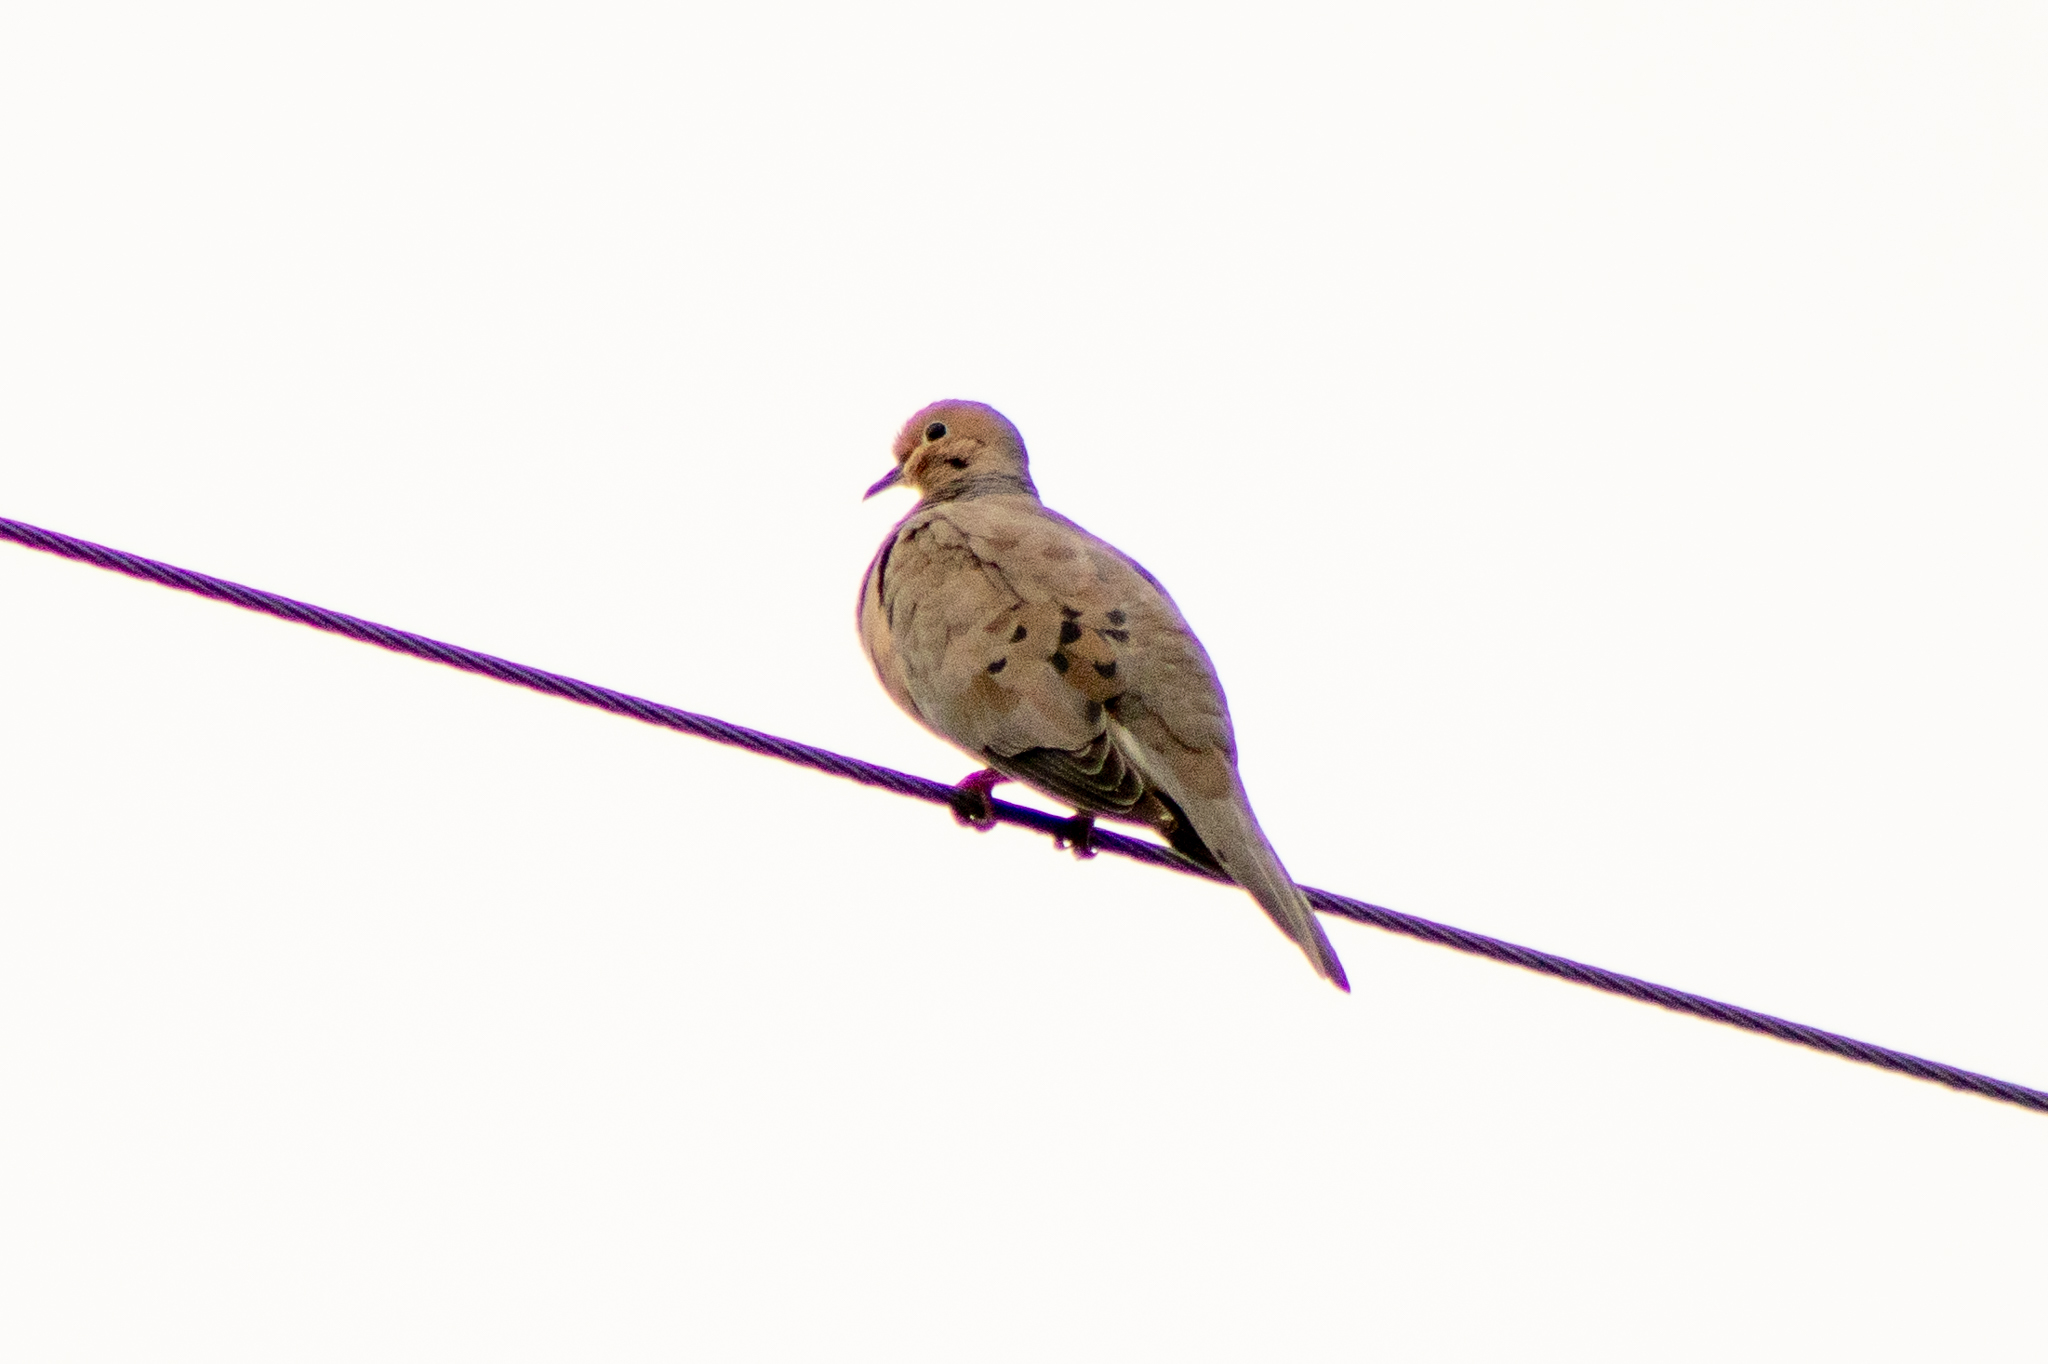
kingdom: Animalia
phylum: Chordata
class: Aves
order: Columbiformes
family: Columbidae
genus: Zenaida
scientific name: Zenaida macroura
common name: Mourning dove
